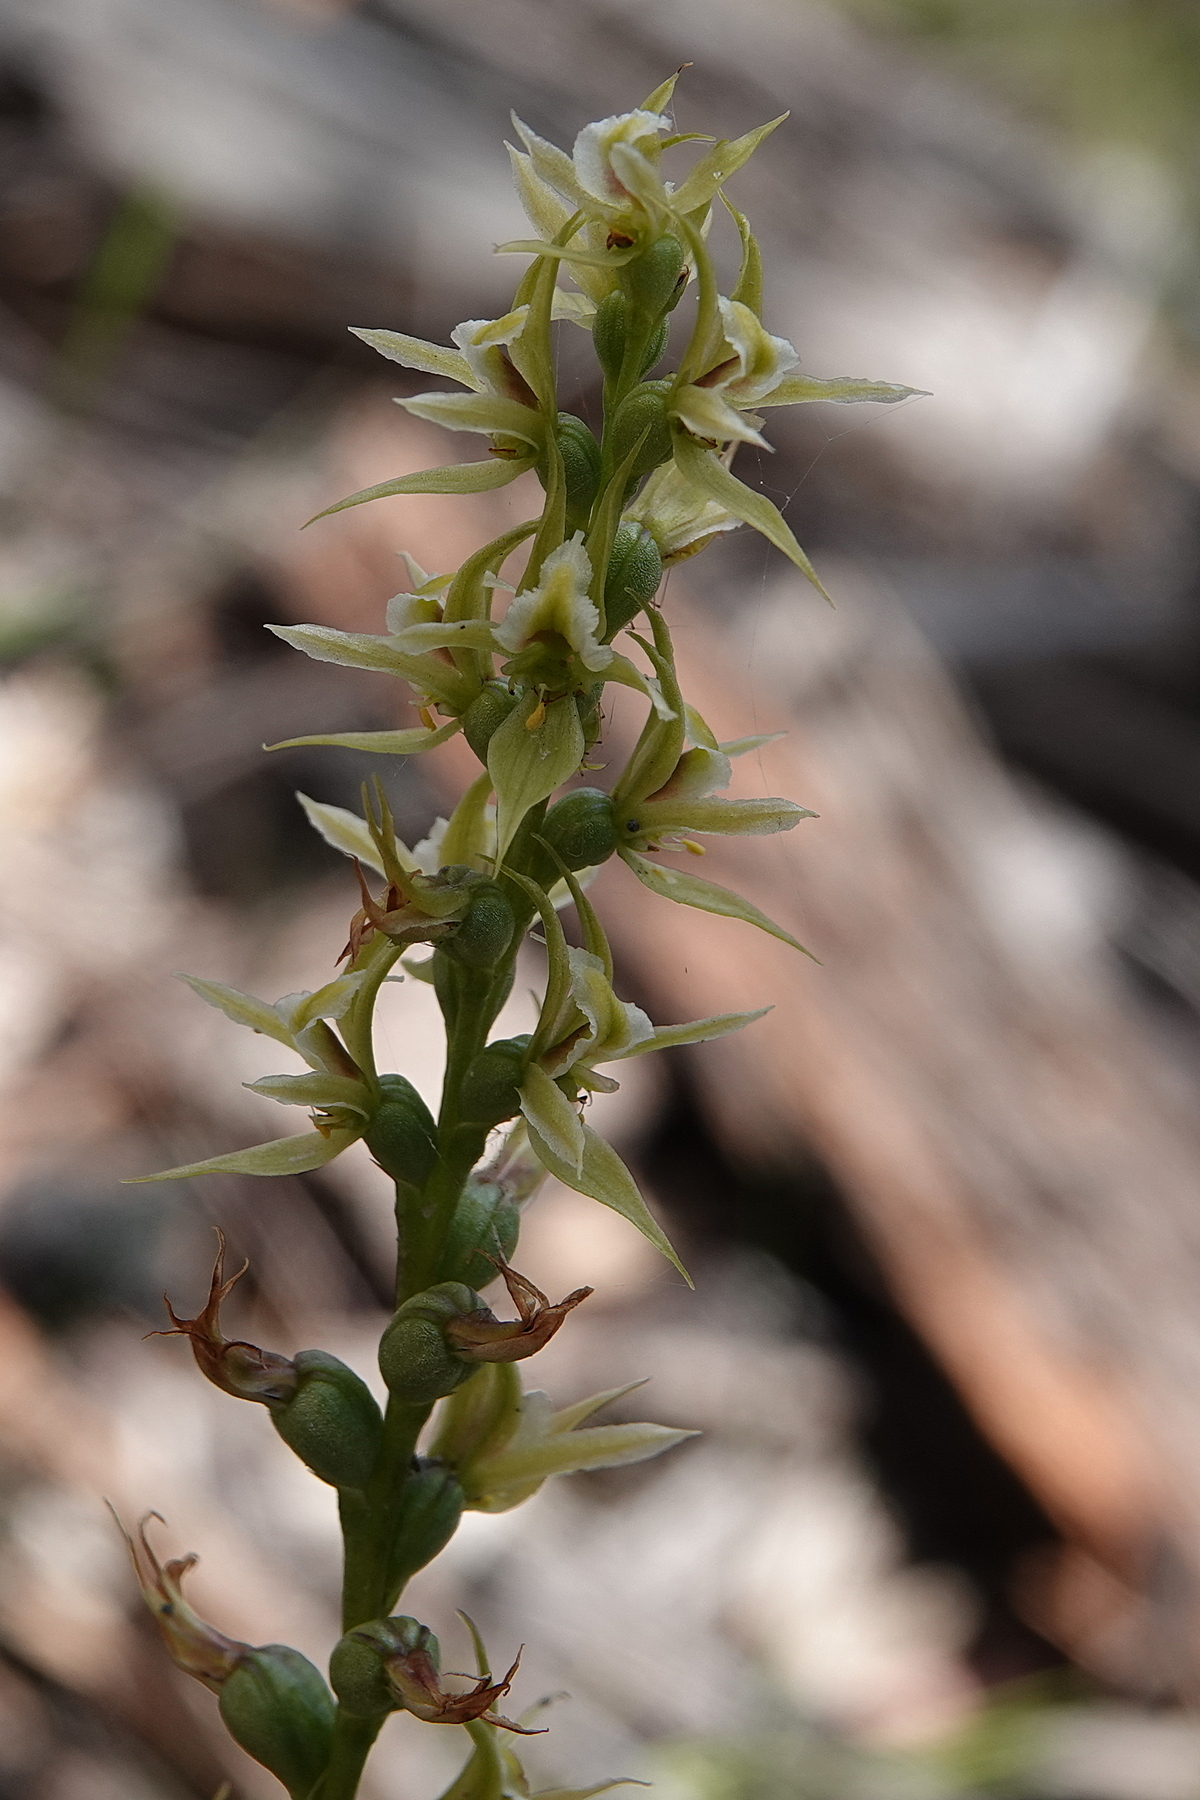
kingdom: Plantae
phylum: Tracheophyta
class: Liliopsida
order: Asparagales
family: Orchidaceae
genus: Prasophyllum
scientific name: Prasophyllum sylvestre
